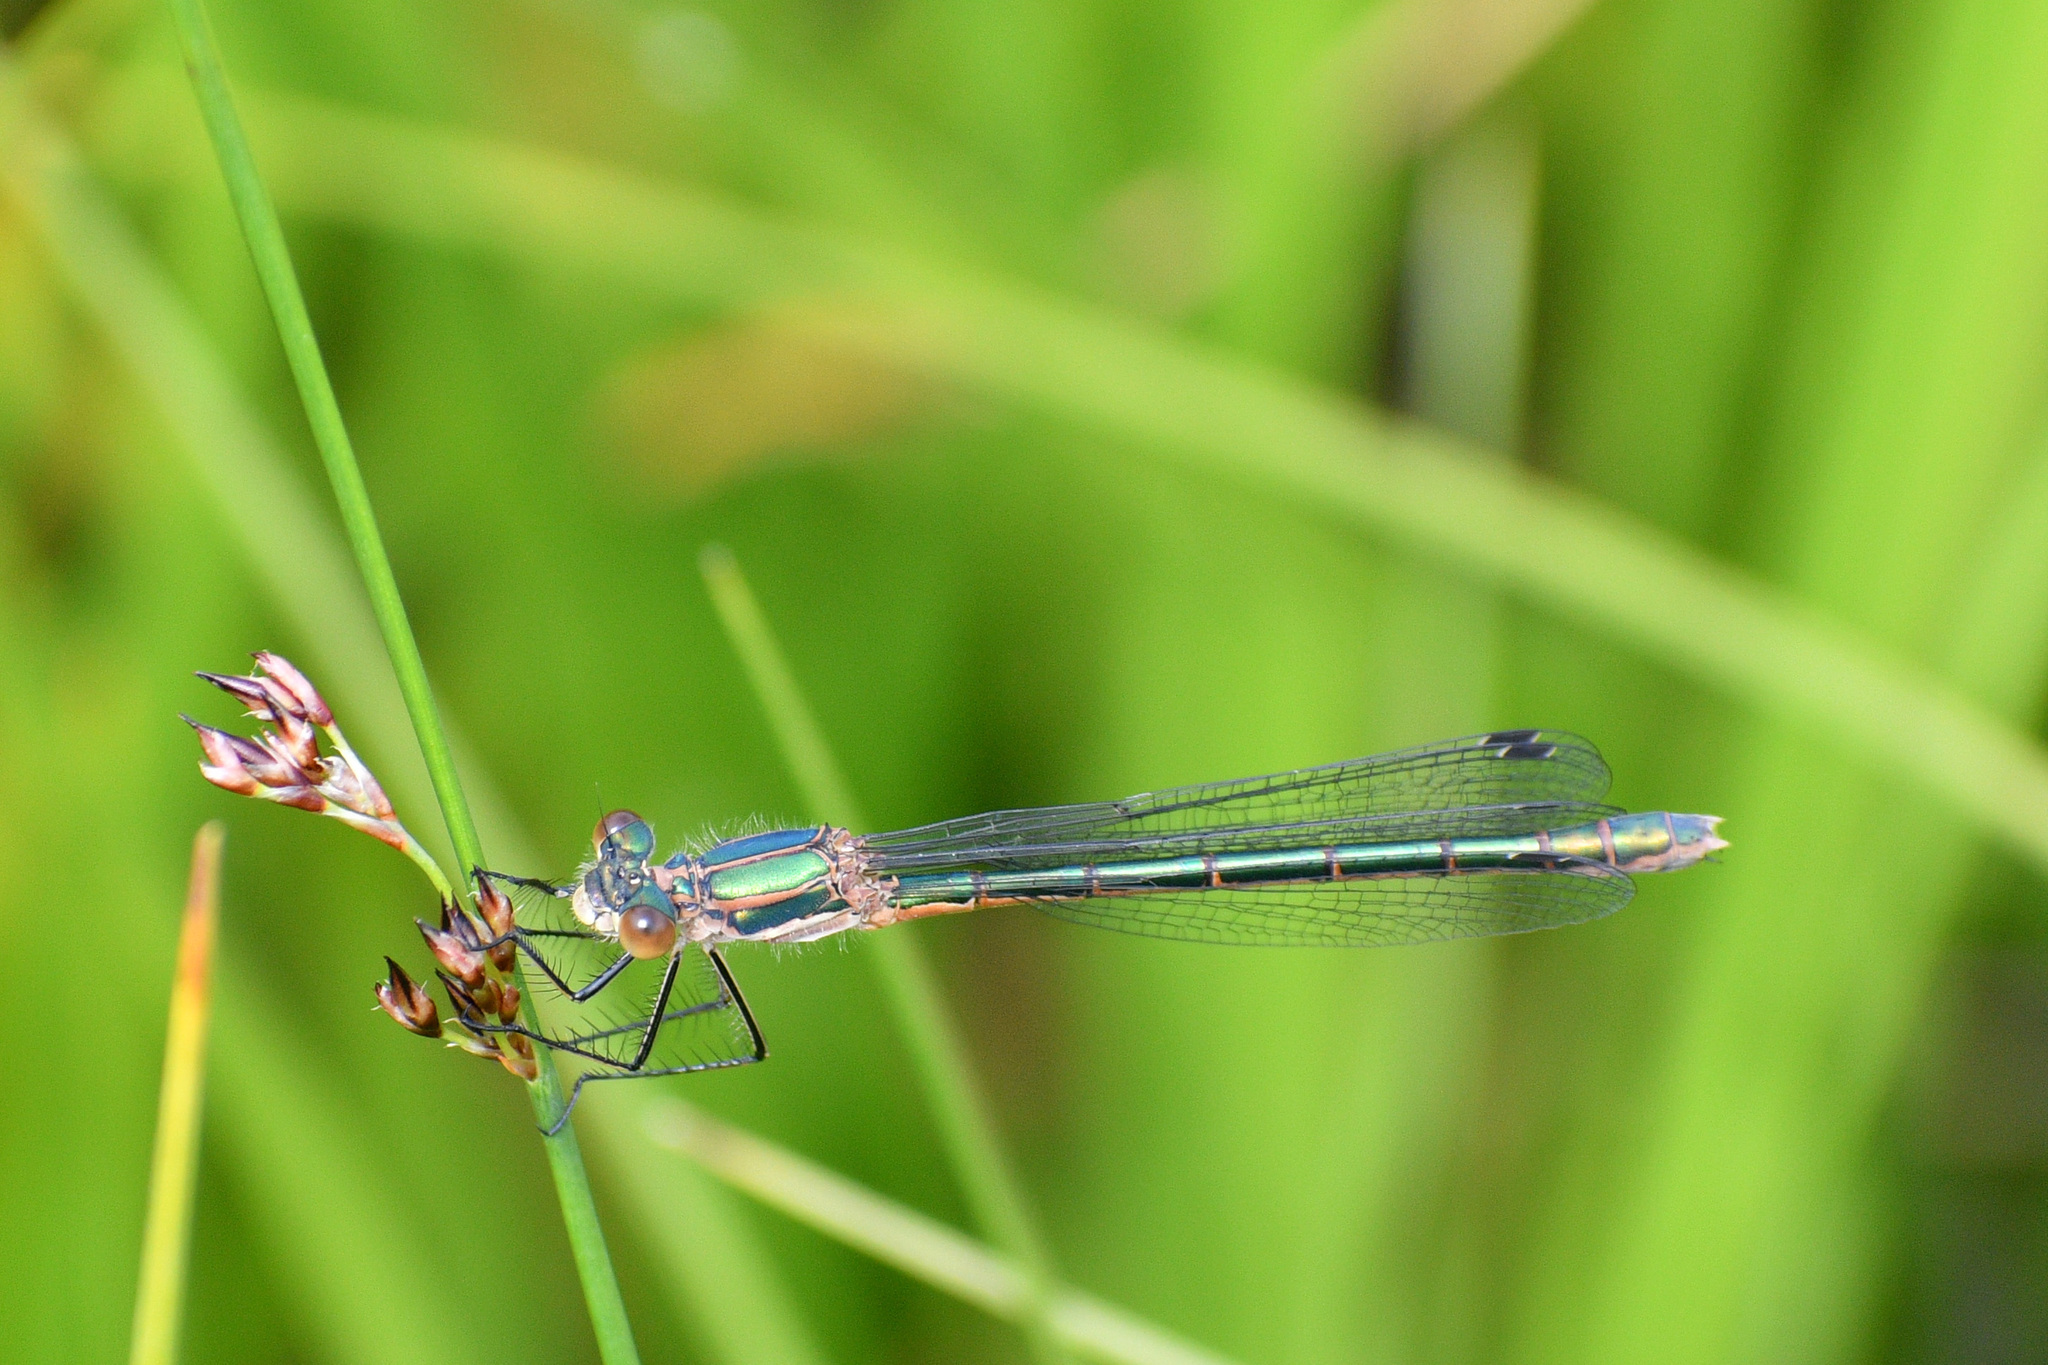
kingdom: Animalia
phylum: Arthropoda
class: Insecta
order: Odonata
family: Lestidae
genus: Lestes
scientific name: Lestes dryas
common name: Scarce emerald damselfly
